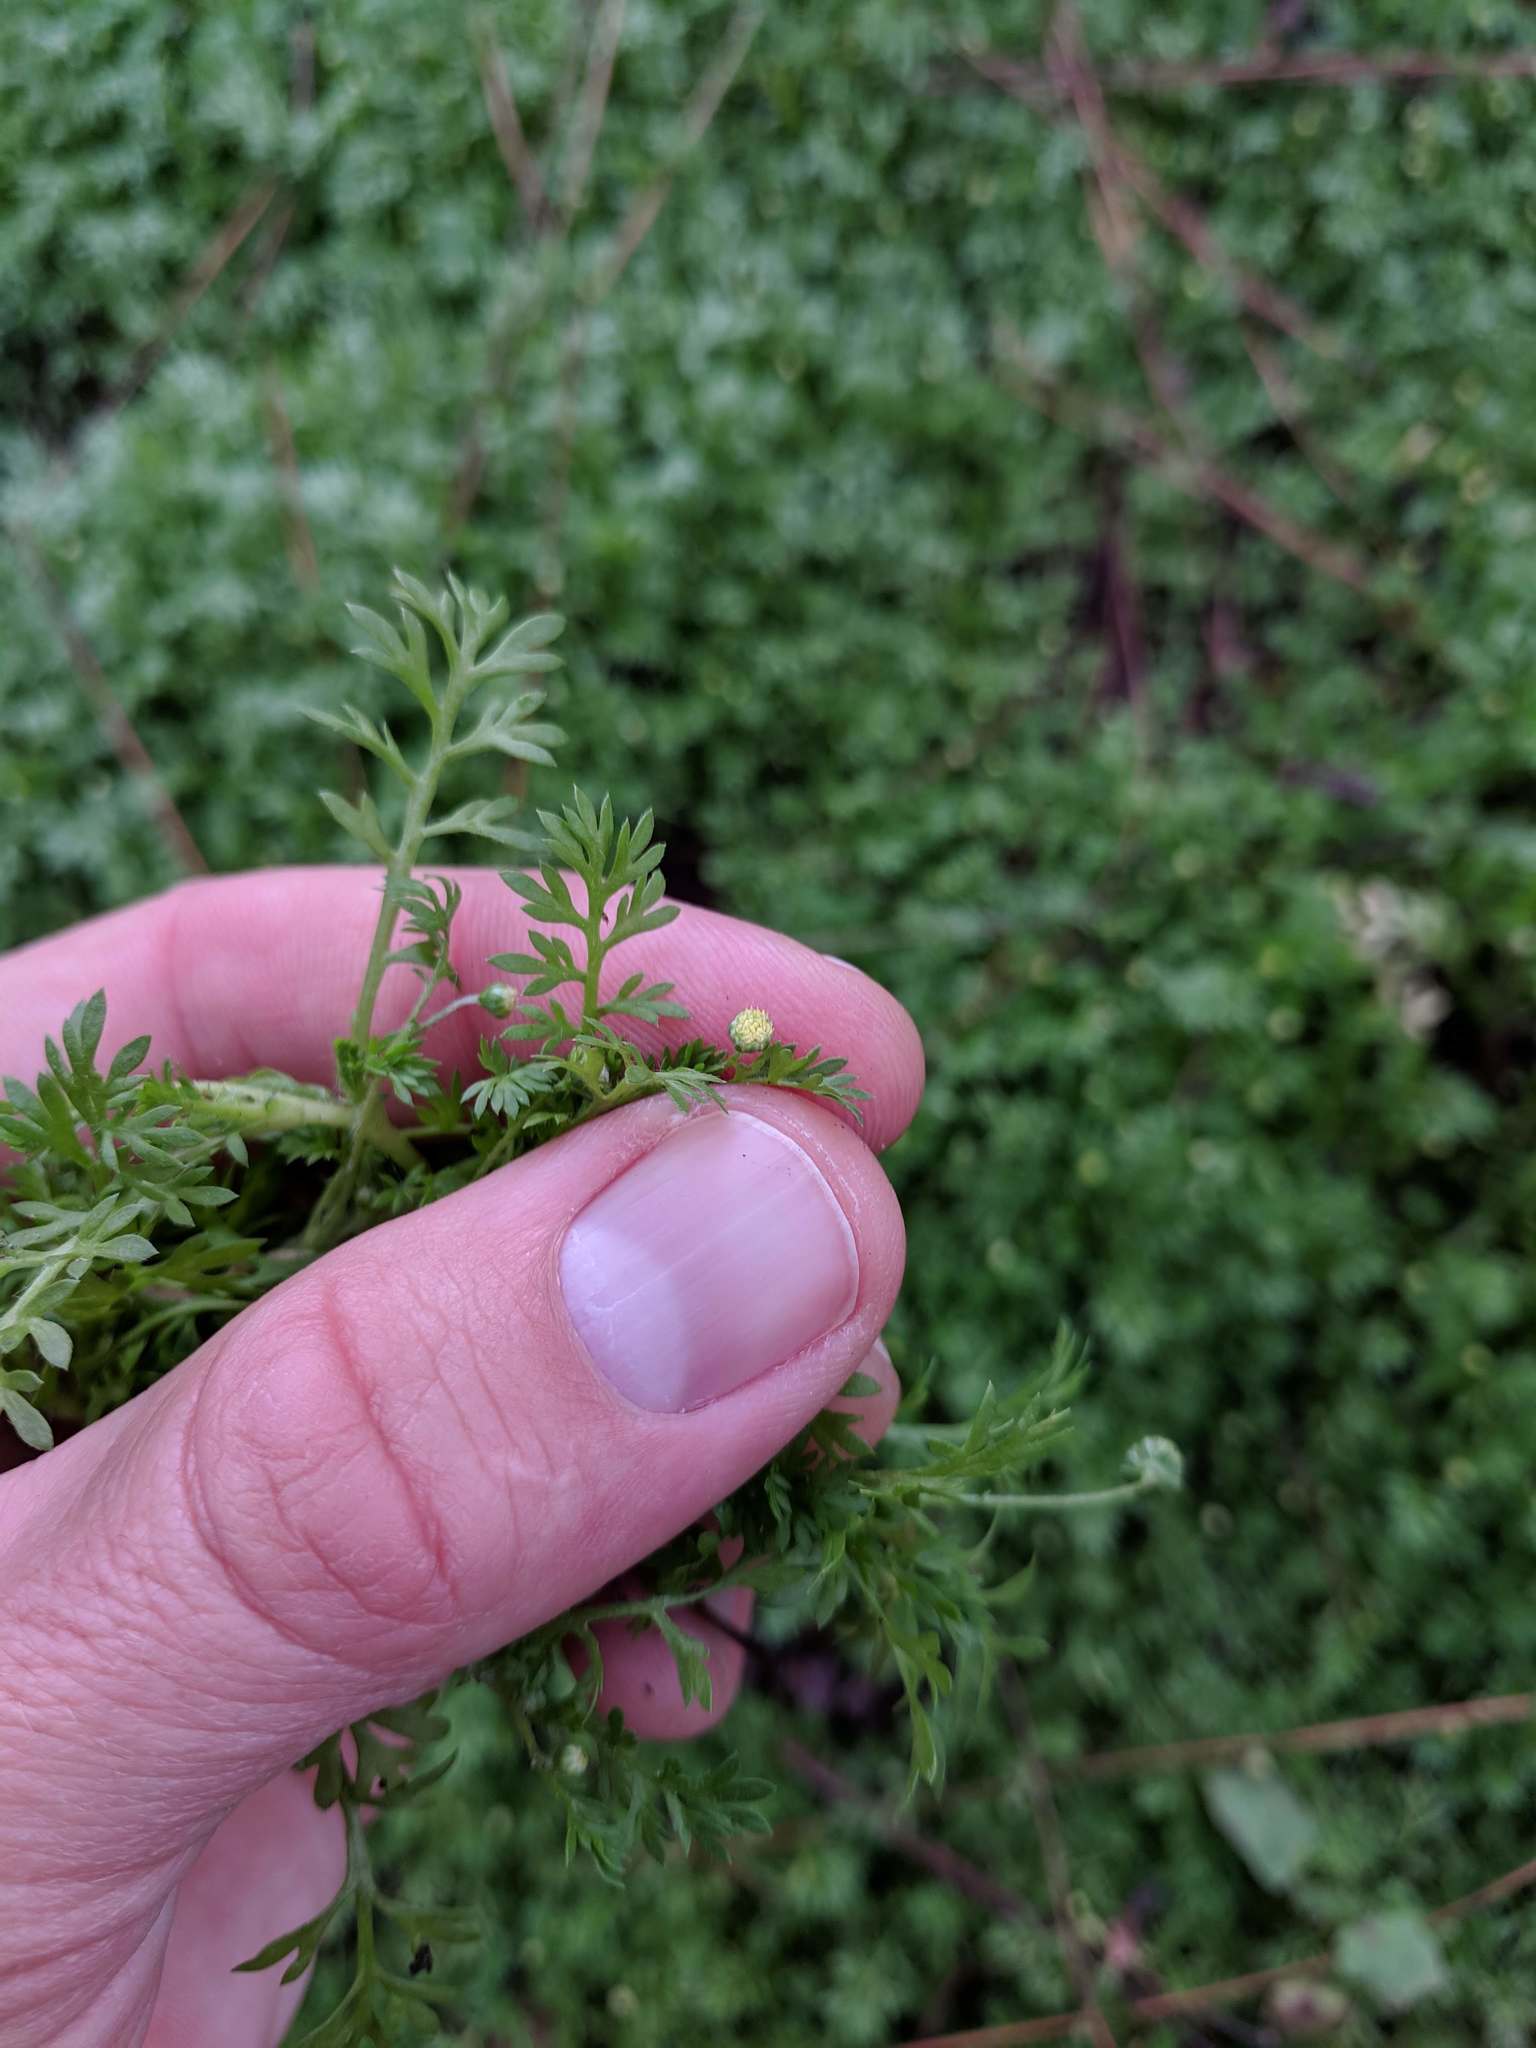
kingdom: Plantae
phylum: Tracheophyta
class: Magnoliopsida
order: Asterales
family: Asteraceae
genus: Cotula
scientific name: Cotula australis
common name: Australian waterbuttons
